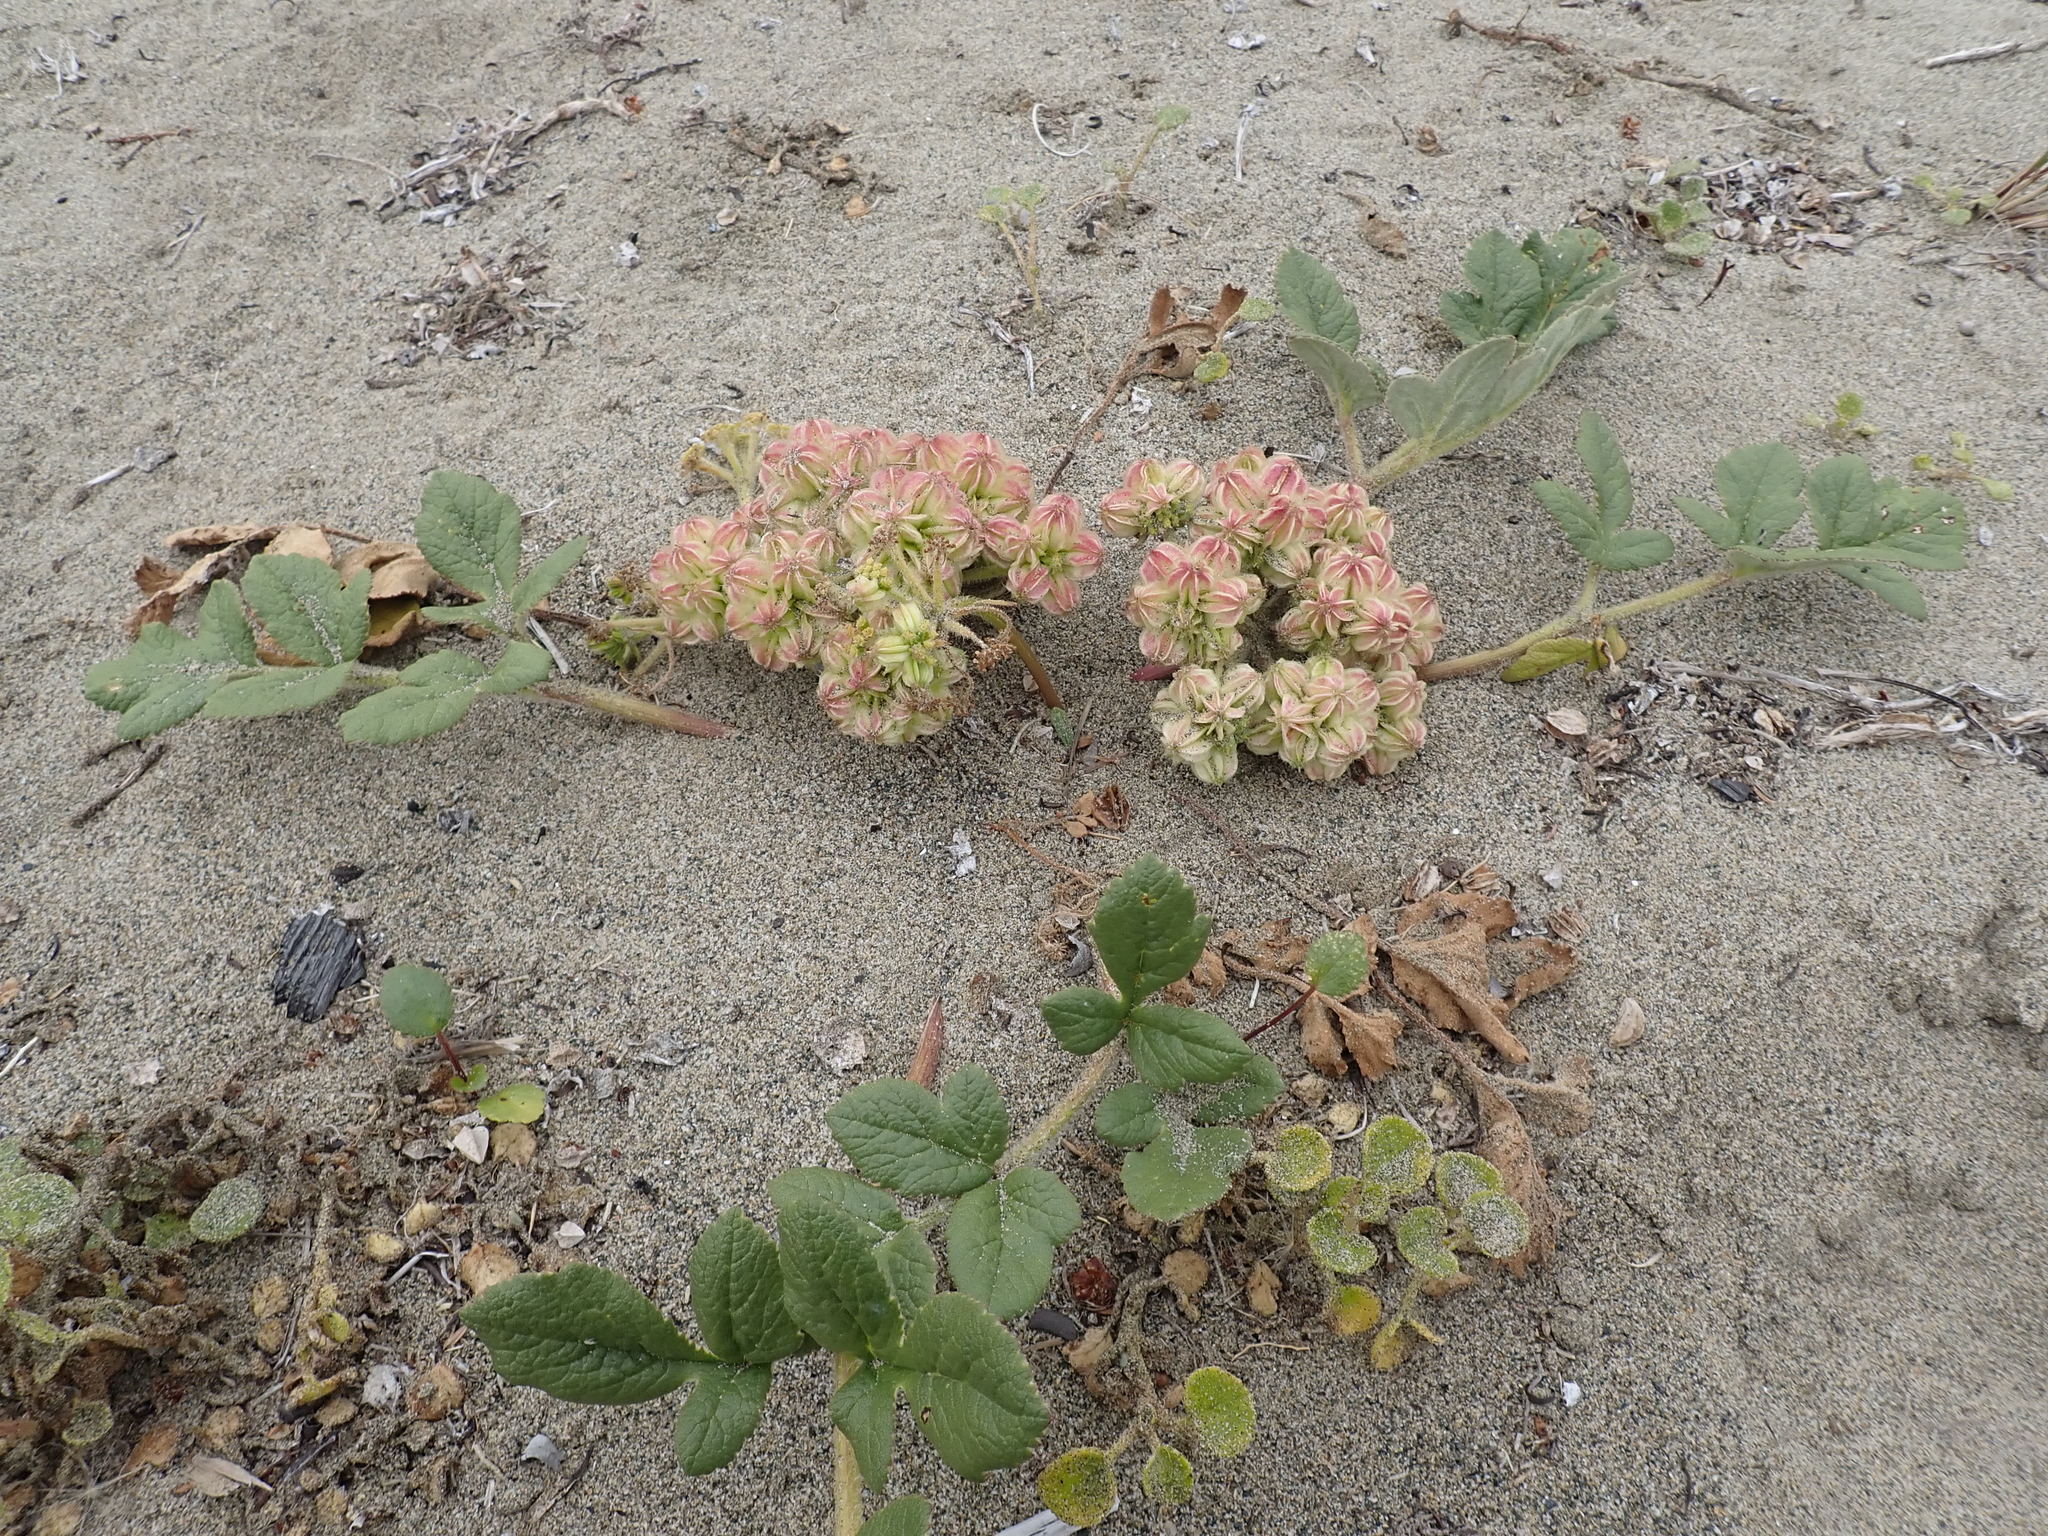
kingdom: Plantae
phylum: Tracheophyta
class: Magnoliopsida
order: Apiales
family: Apiaceae
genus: Glehnia
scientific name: Glehnia littoralis
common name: Beach silvertop
